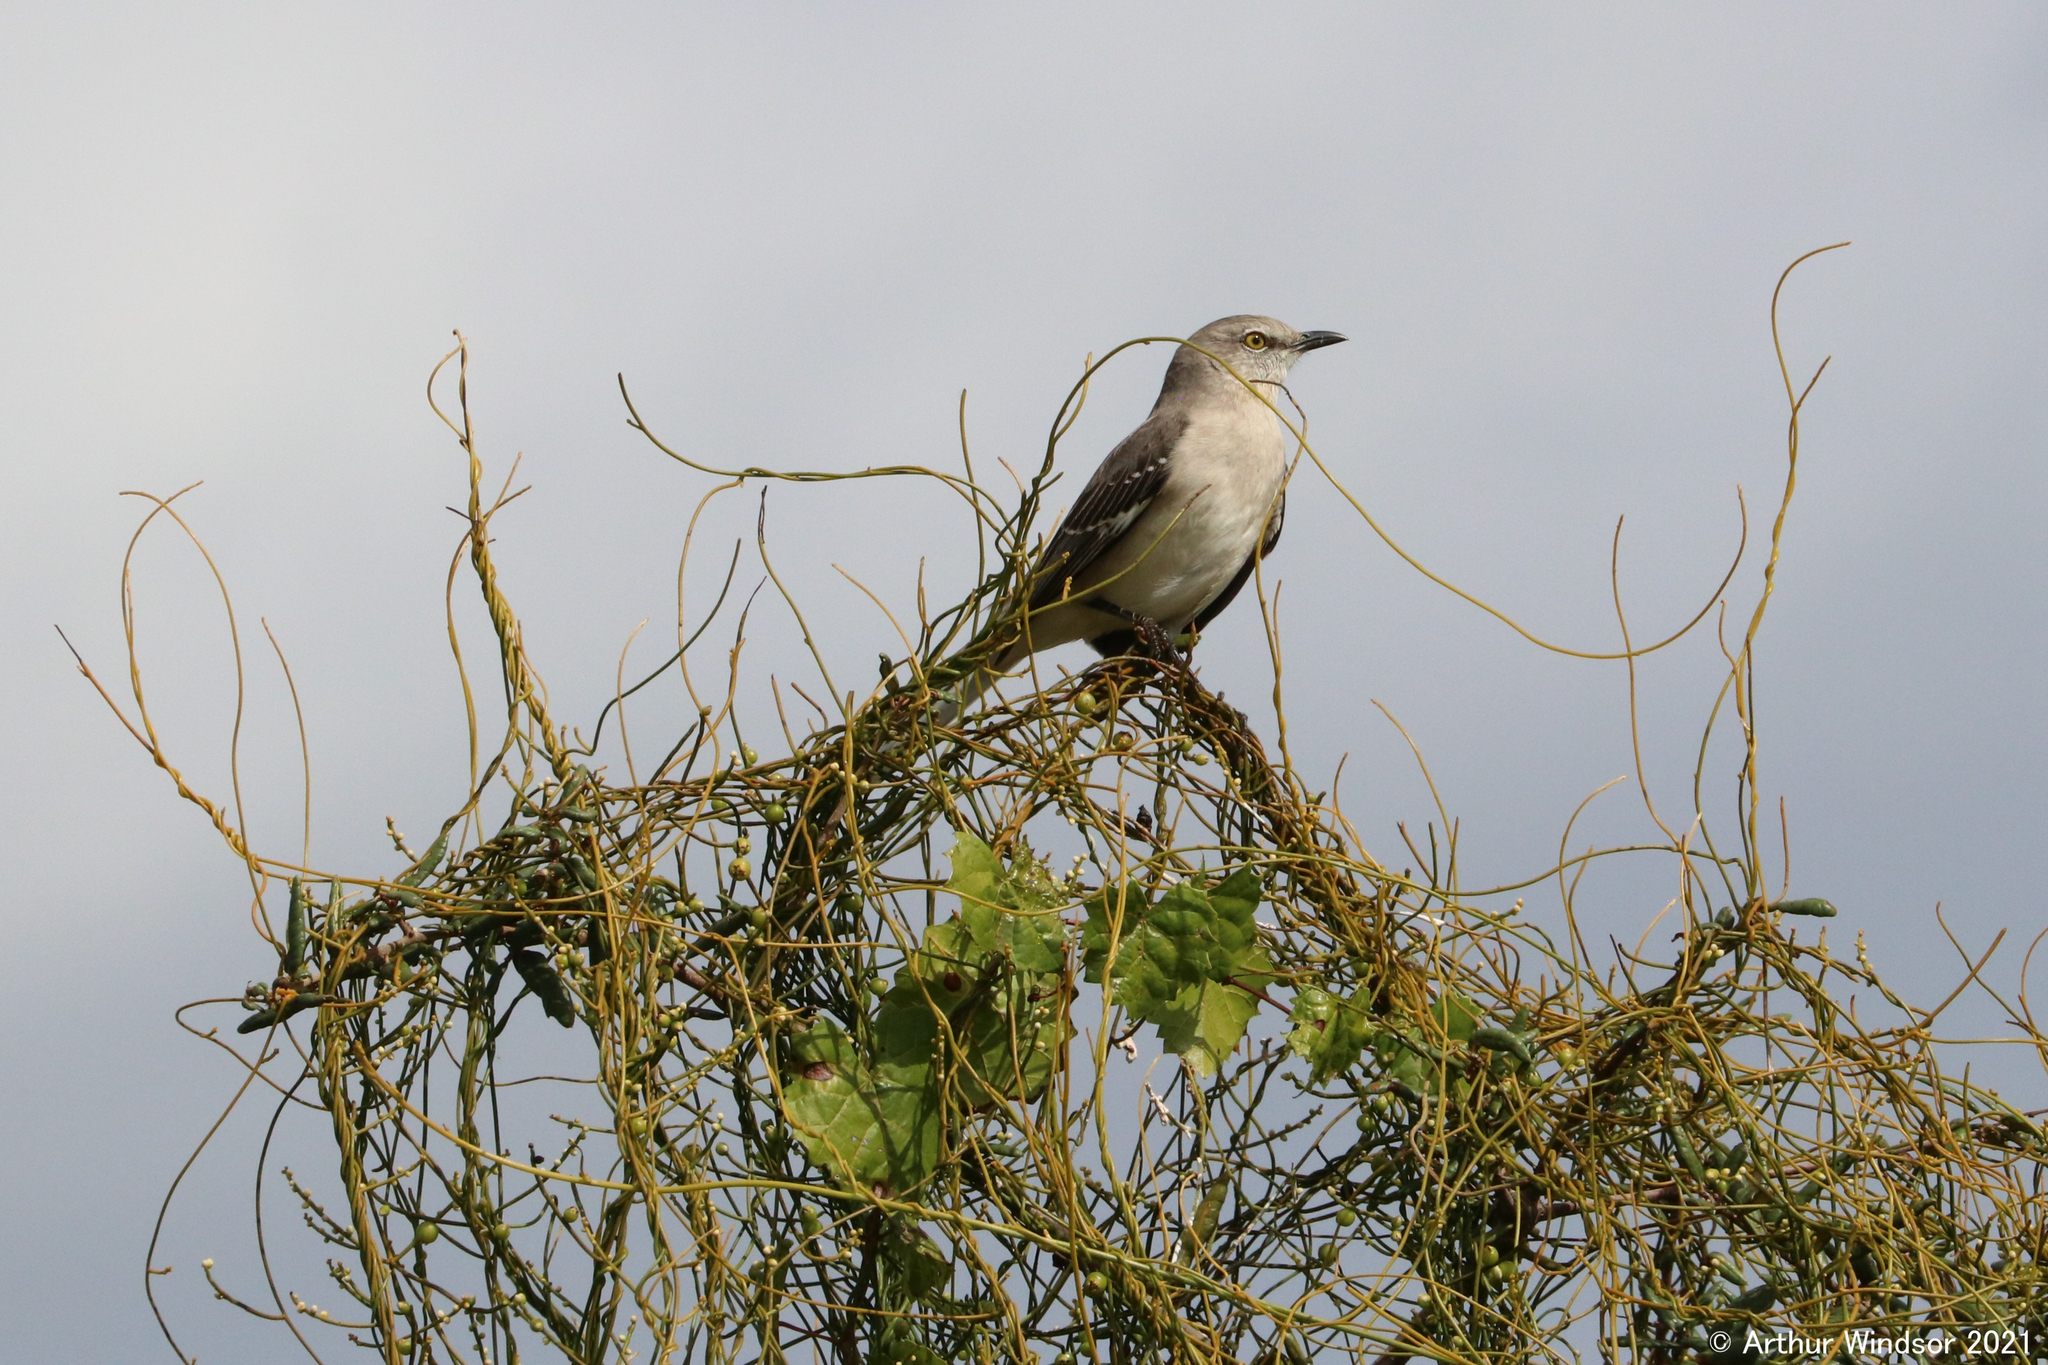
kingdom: Animalia
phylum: Chordata
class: Aves
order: Passeriformes
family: Mimidae
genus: Mimus
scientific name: Mimus polyglottos
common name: Northern mockingbird
